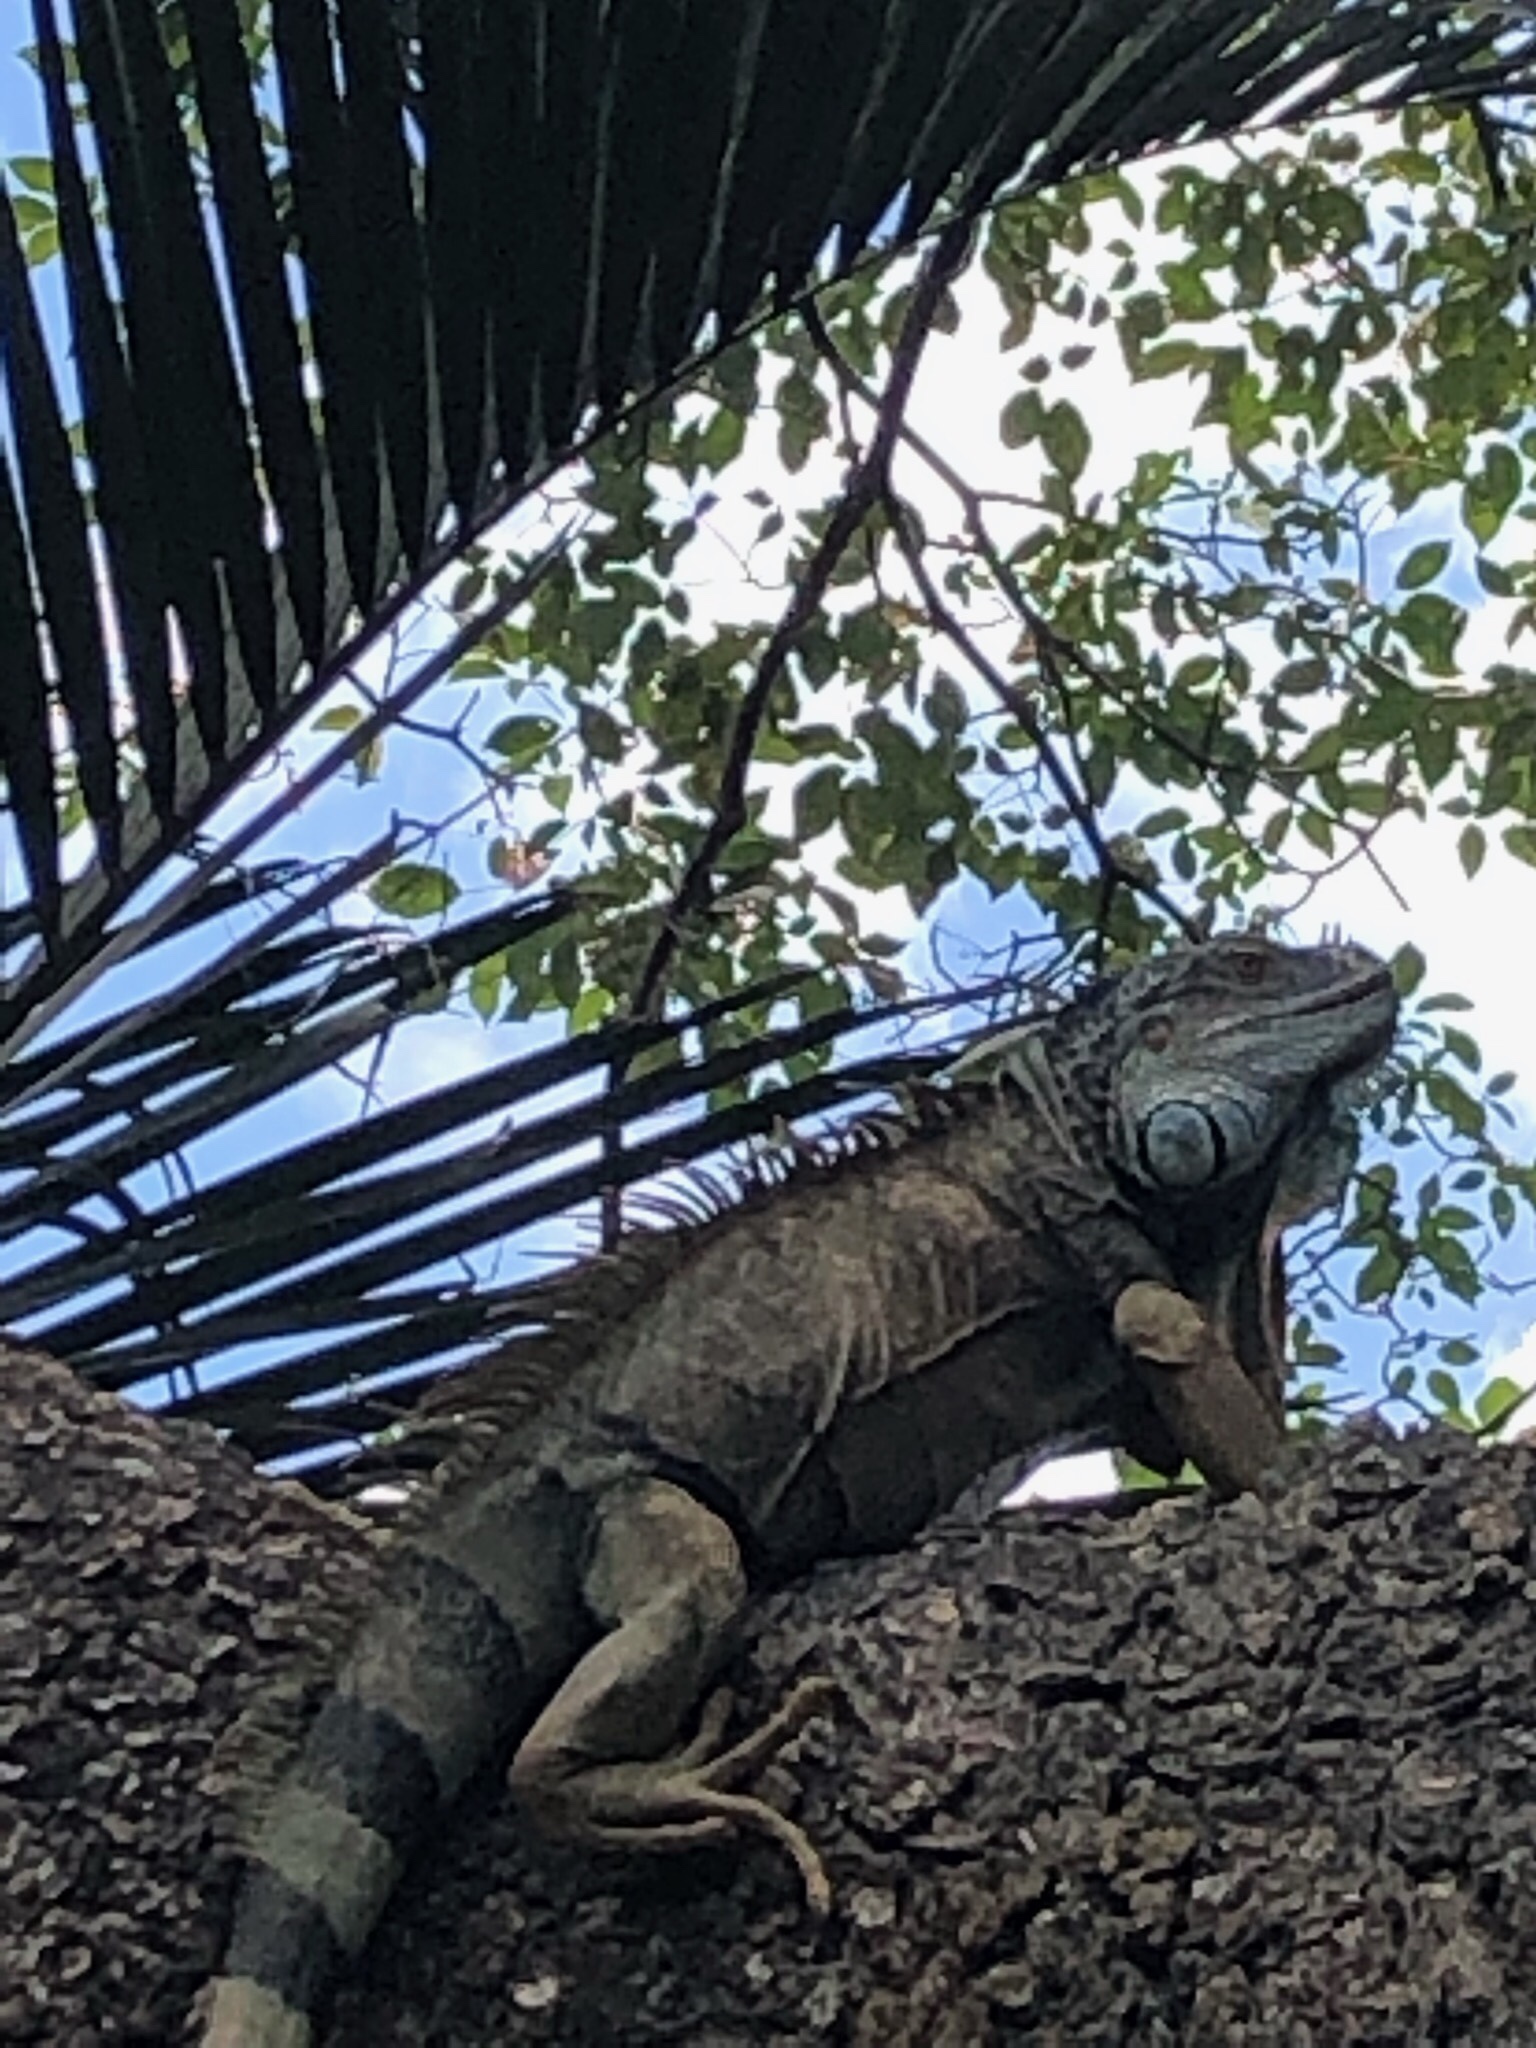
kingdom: Animalia
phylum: Chordata
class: Squamata
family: Iguanidae
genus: Iguana
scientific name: Iguana iguana
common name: Green iguana
